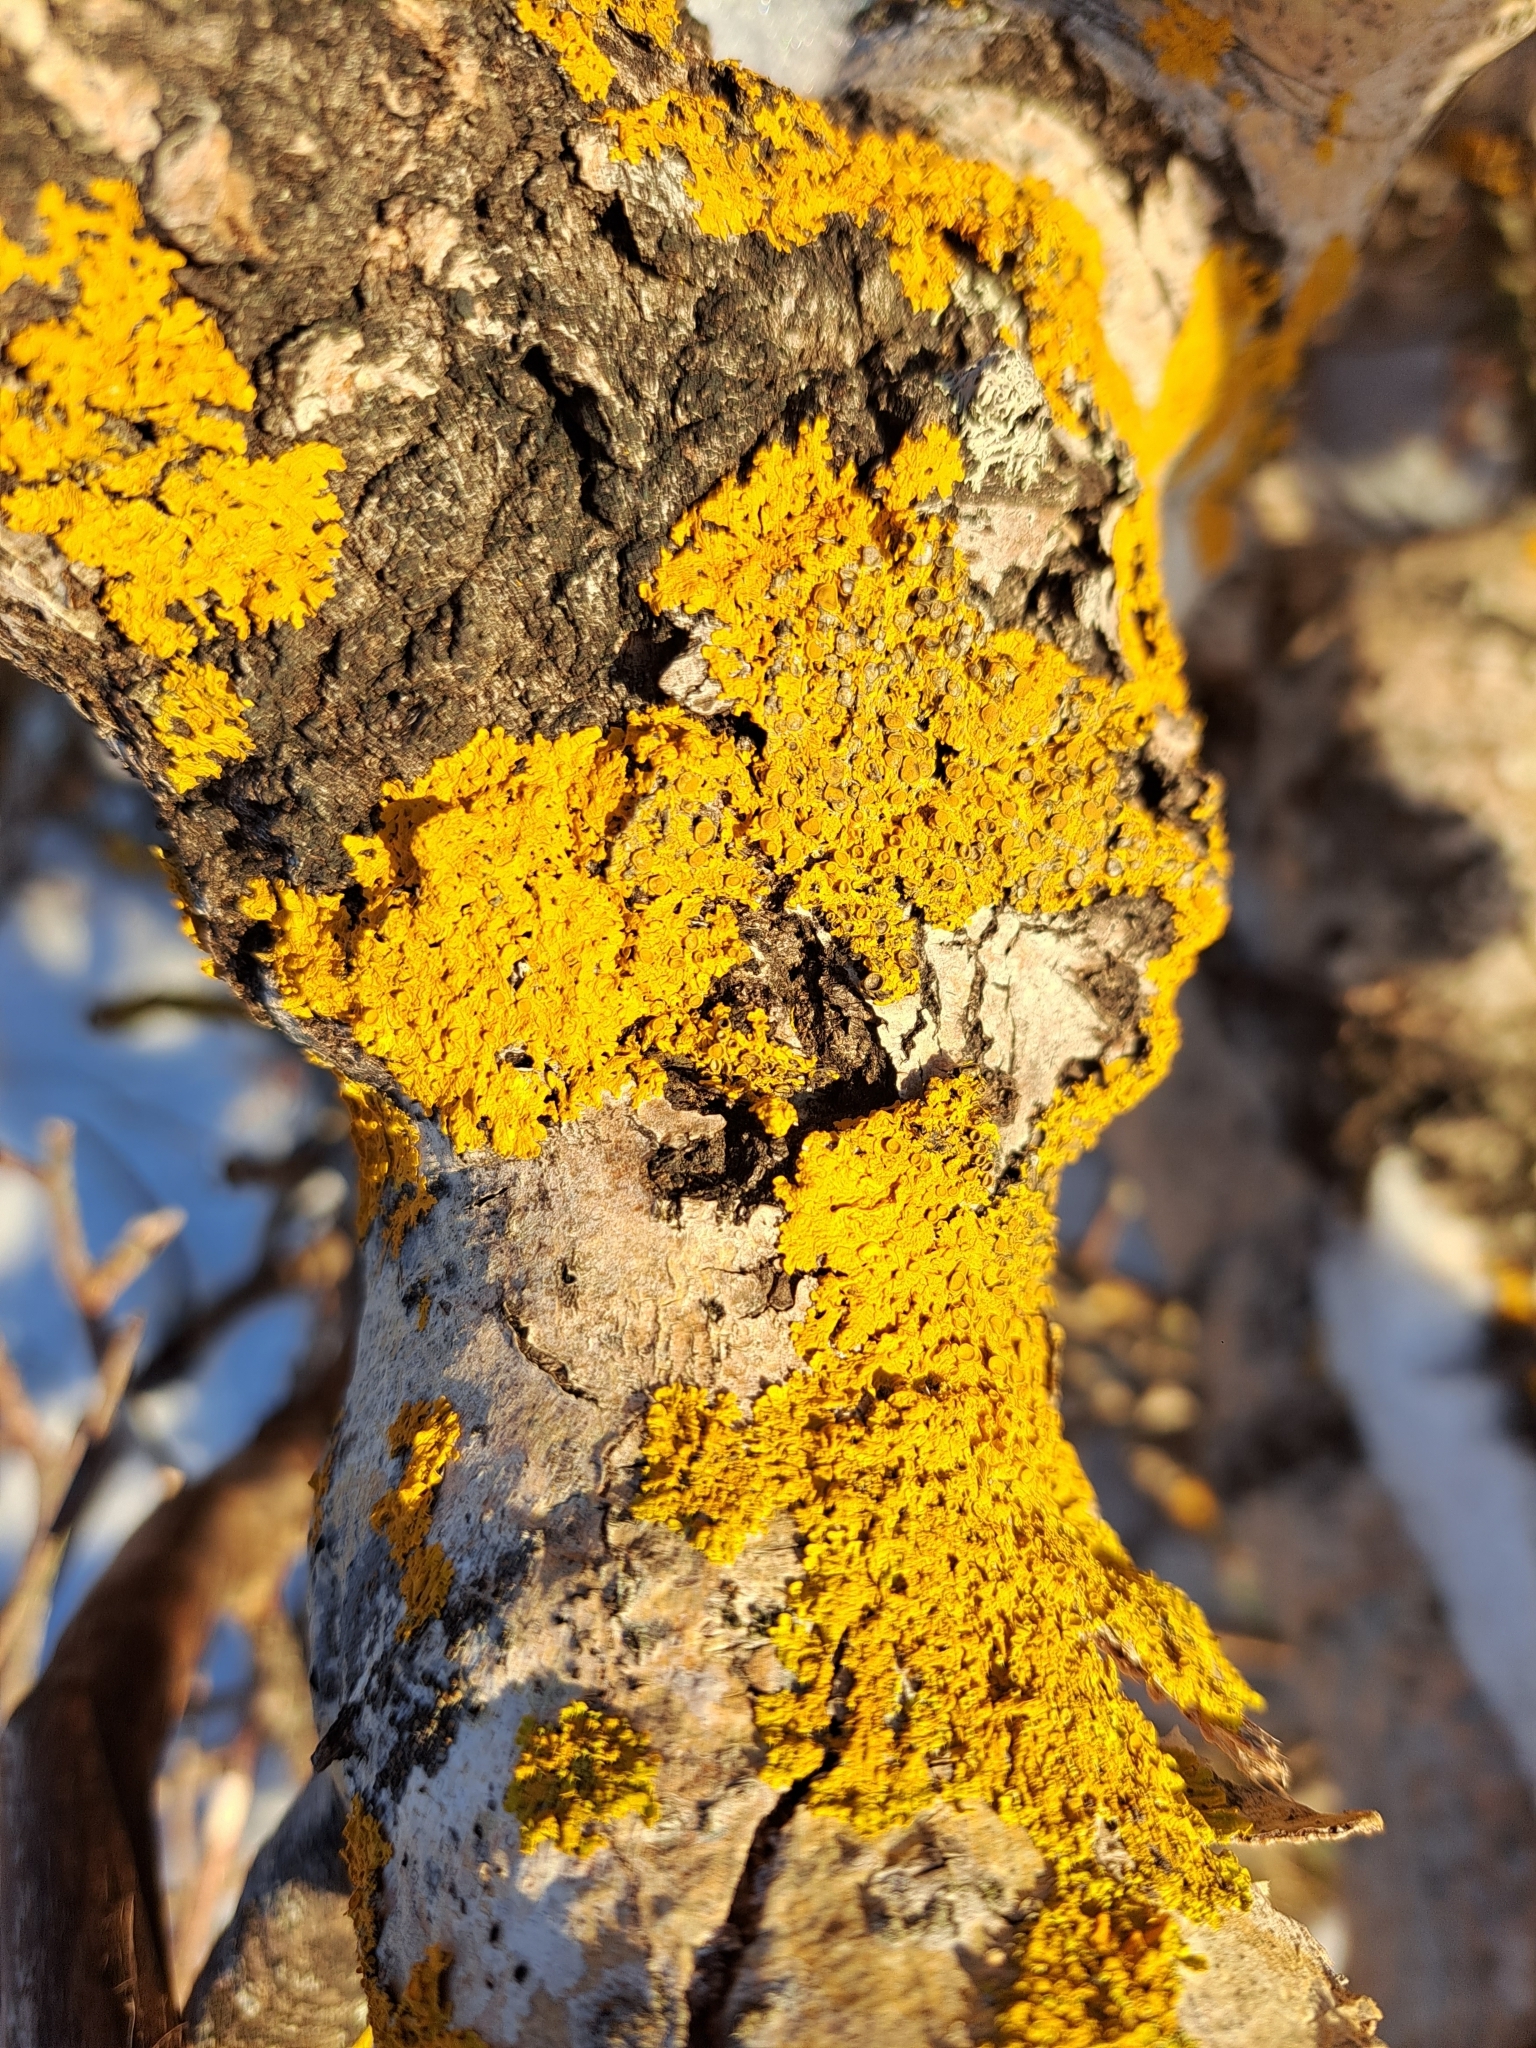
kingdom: Fungi
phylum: Ascomycota
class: Lecanoromycetes
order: Teloschistales
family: Teloschistaceae
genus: Xanthoria
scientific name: Xanthoria parietina
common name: Common orange lichen
